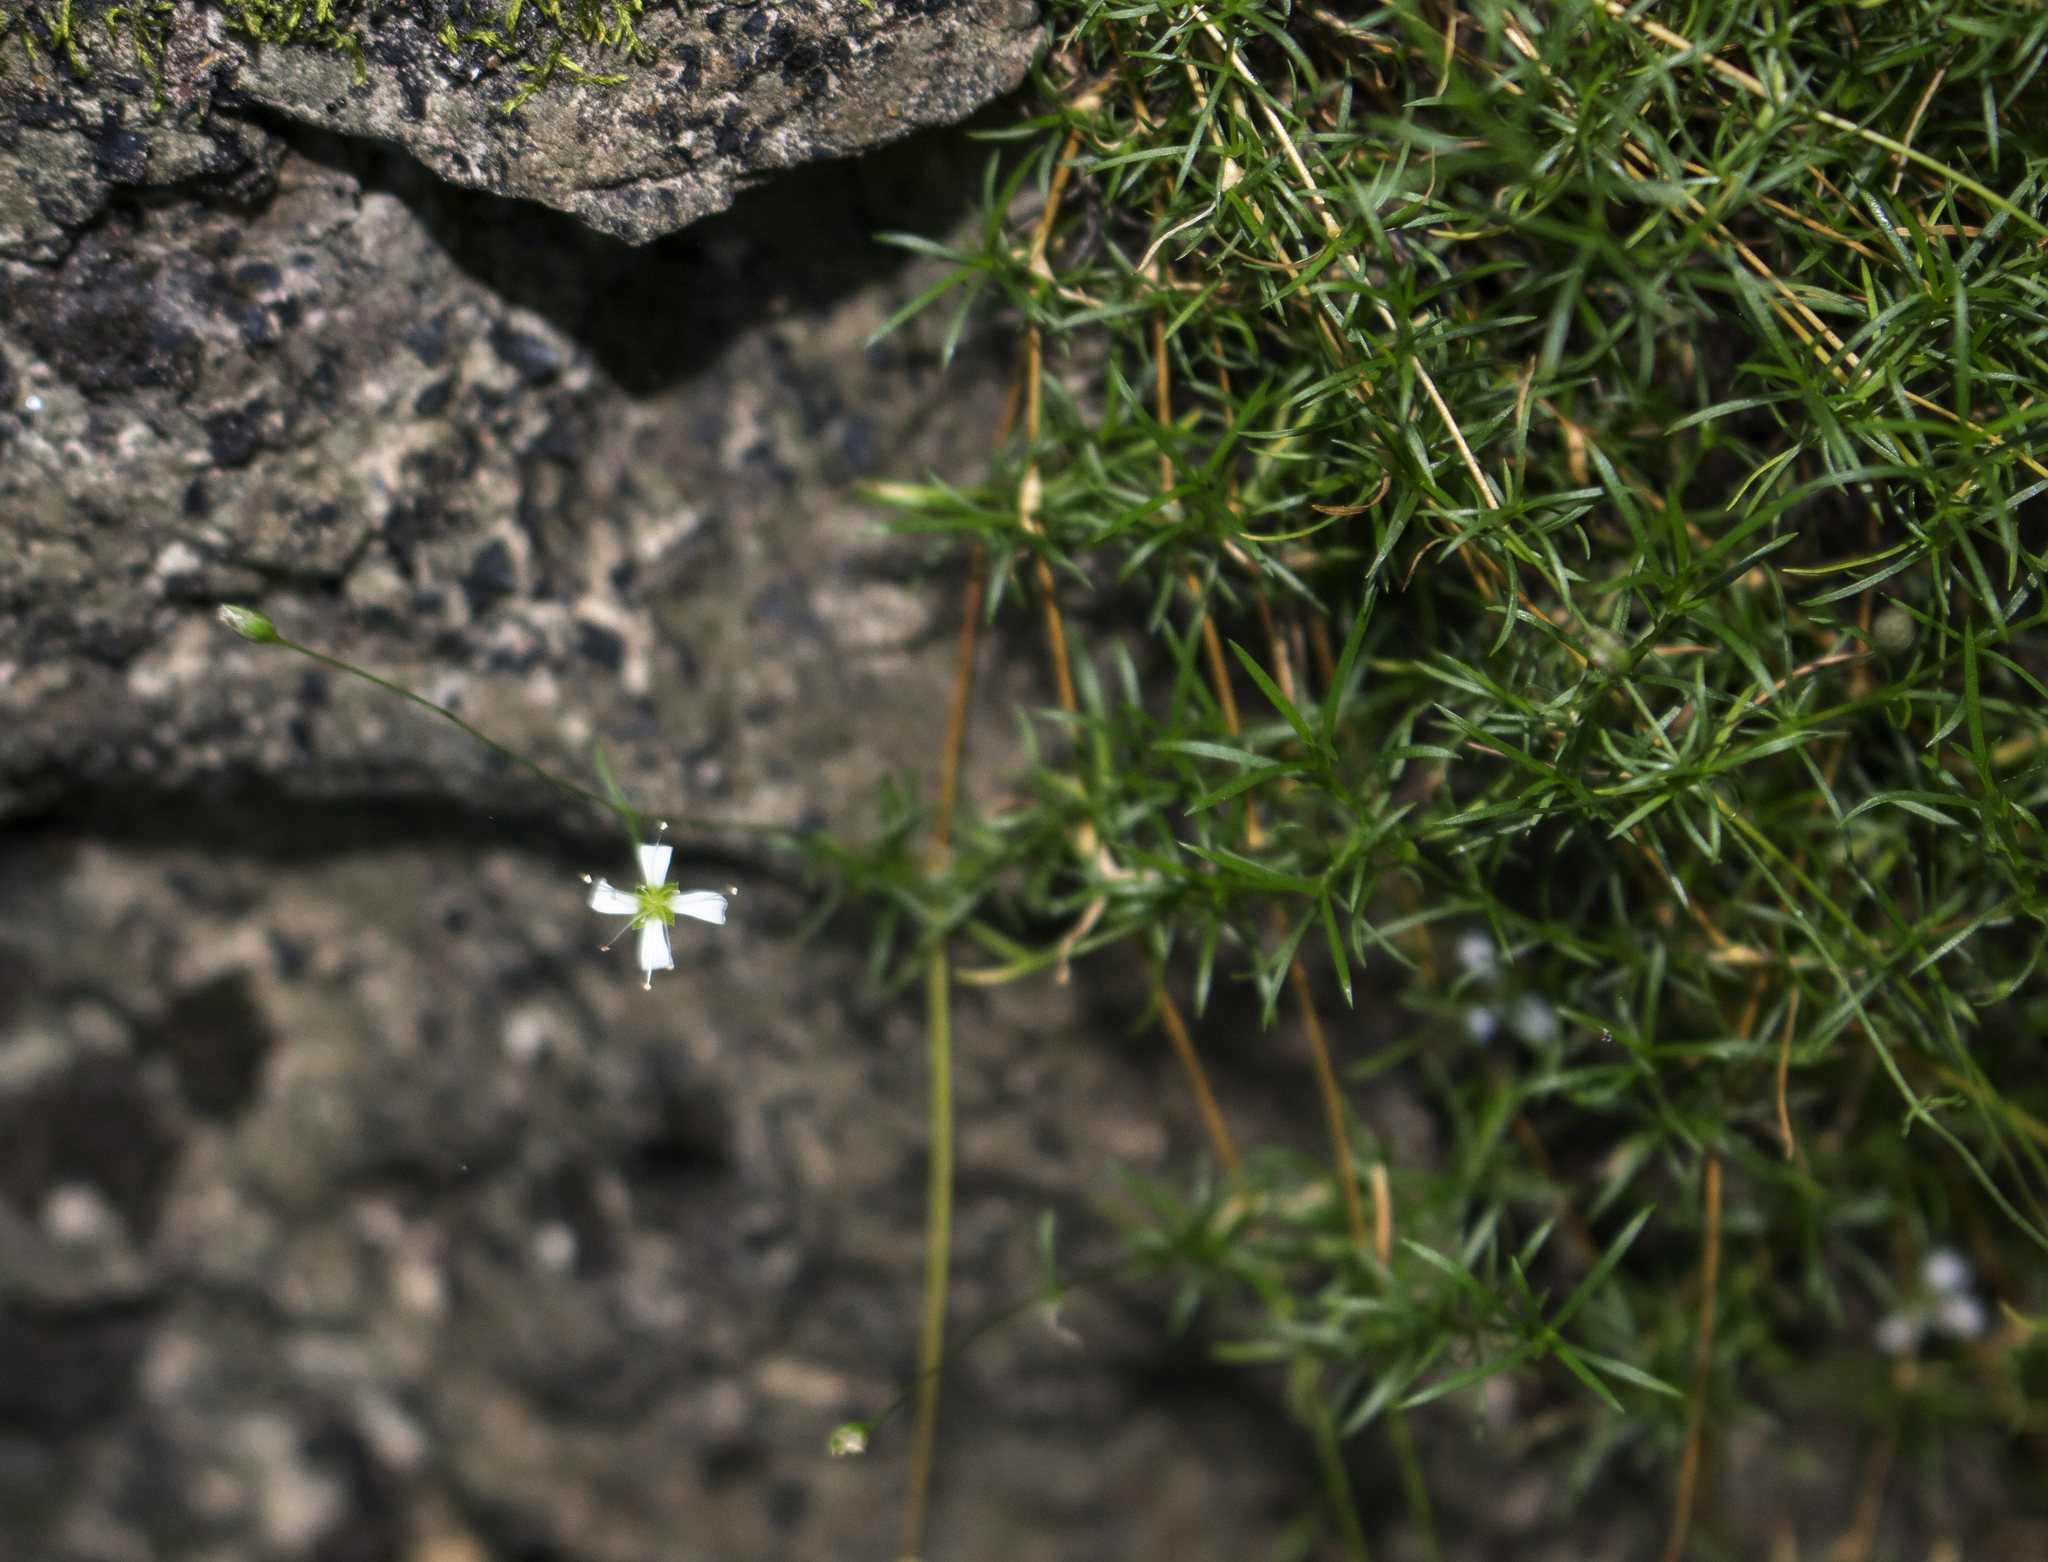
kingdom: Plantae
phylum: Tracheophyta
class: Magnoliopsida
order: Caryophyllales
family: Caryophyllaceae
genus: Sabulina
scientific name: Sabulina michauxii
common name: Michaux's stitchwort
